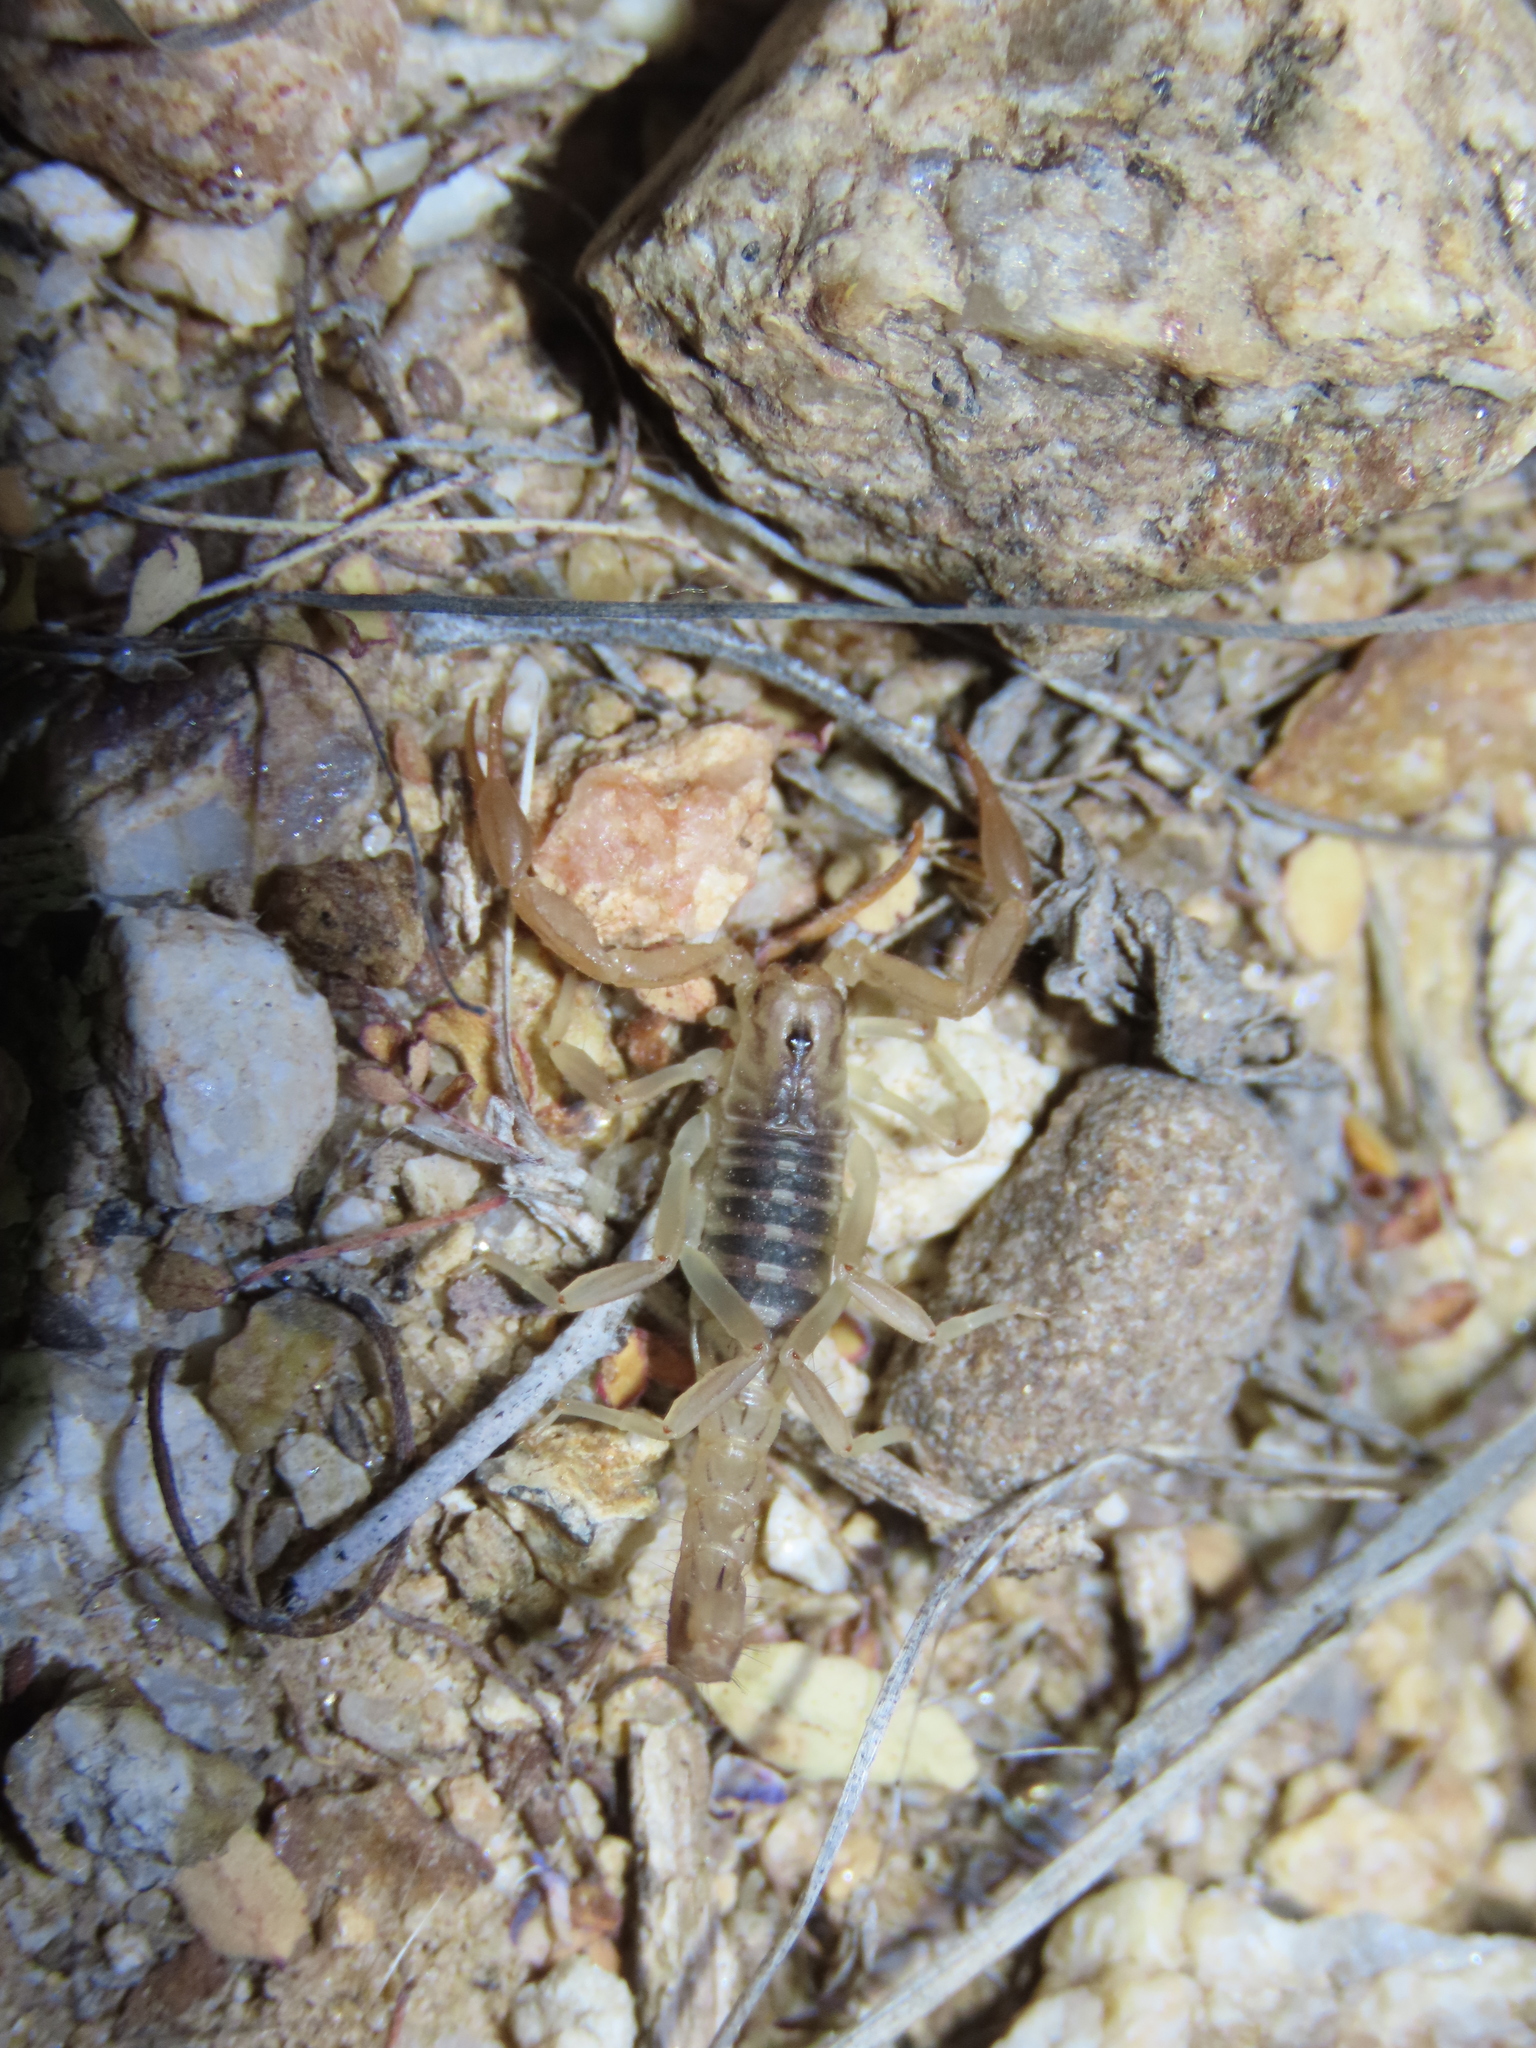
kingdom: Animalia
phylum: Arthropoda
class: Arachnida
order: Scorpiones
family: Vaejovidae
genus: Paravaejovis
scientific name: Paravaejovis spinigerus
